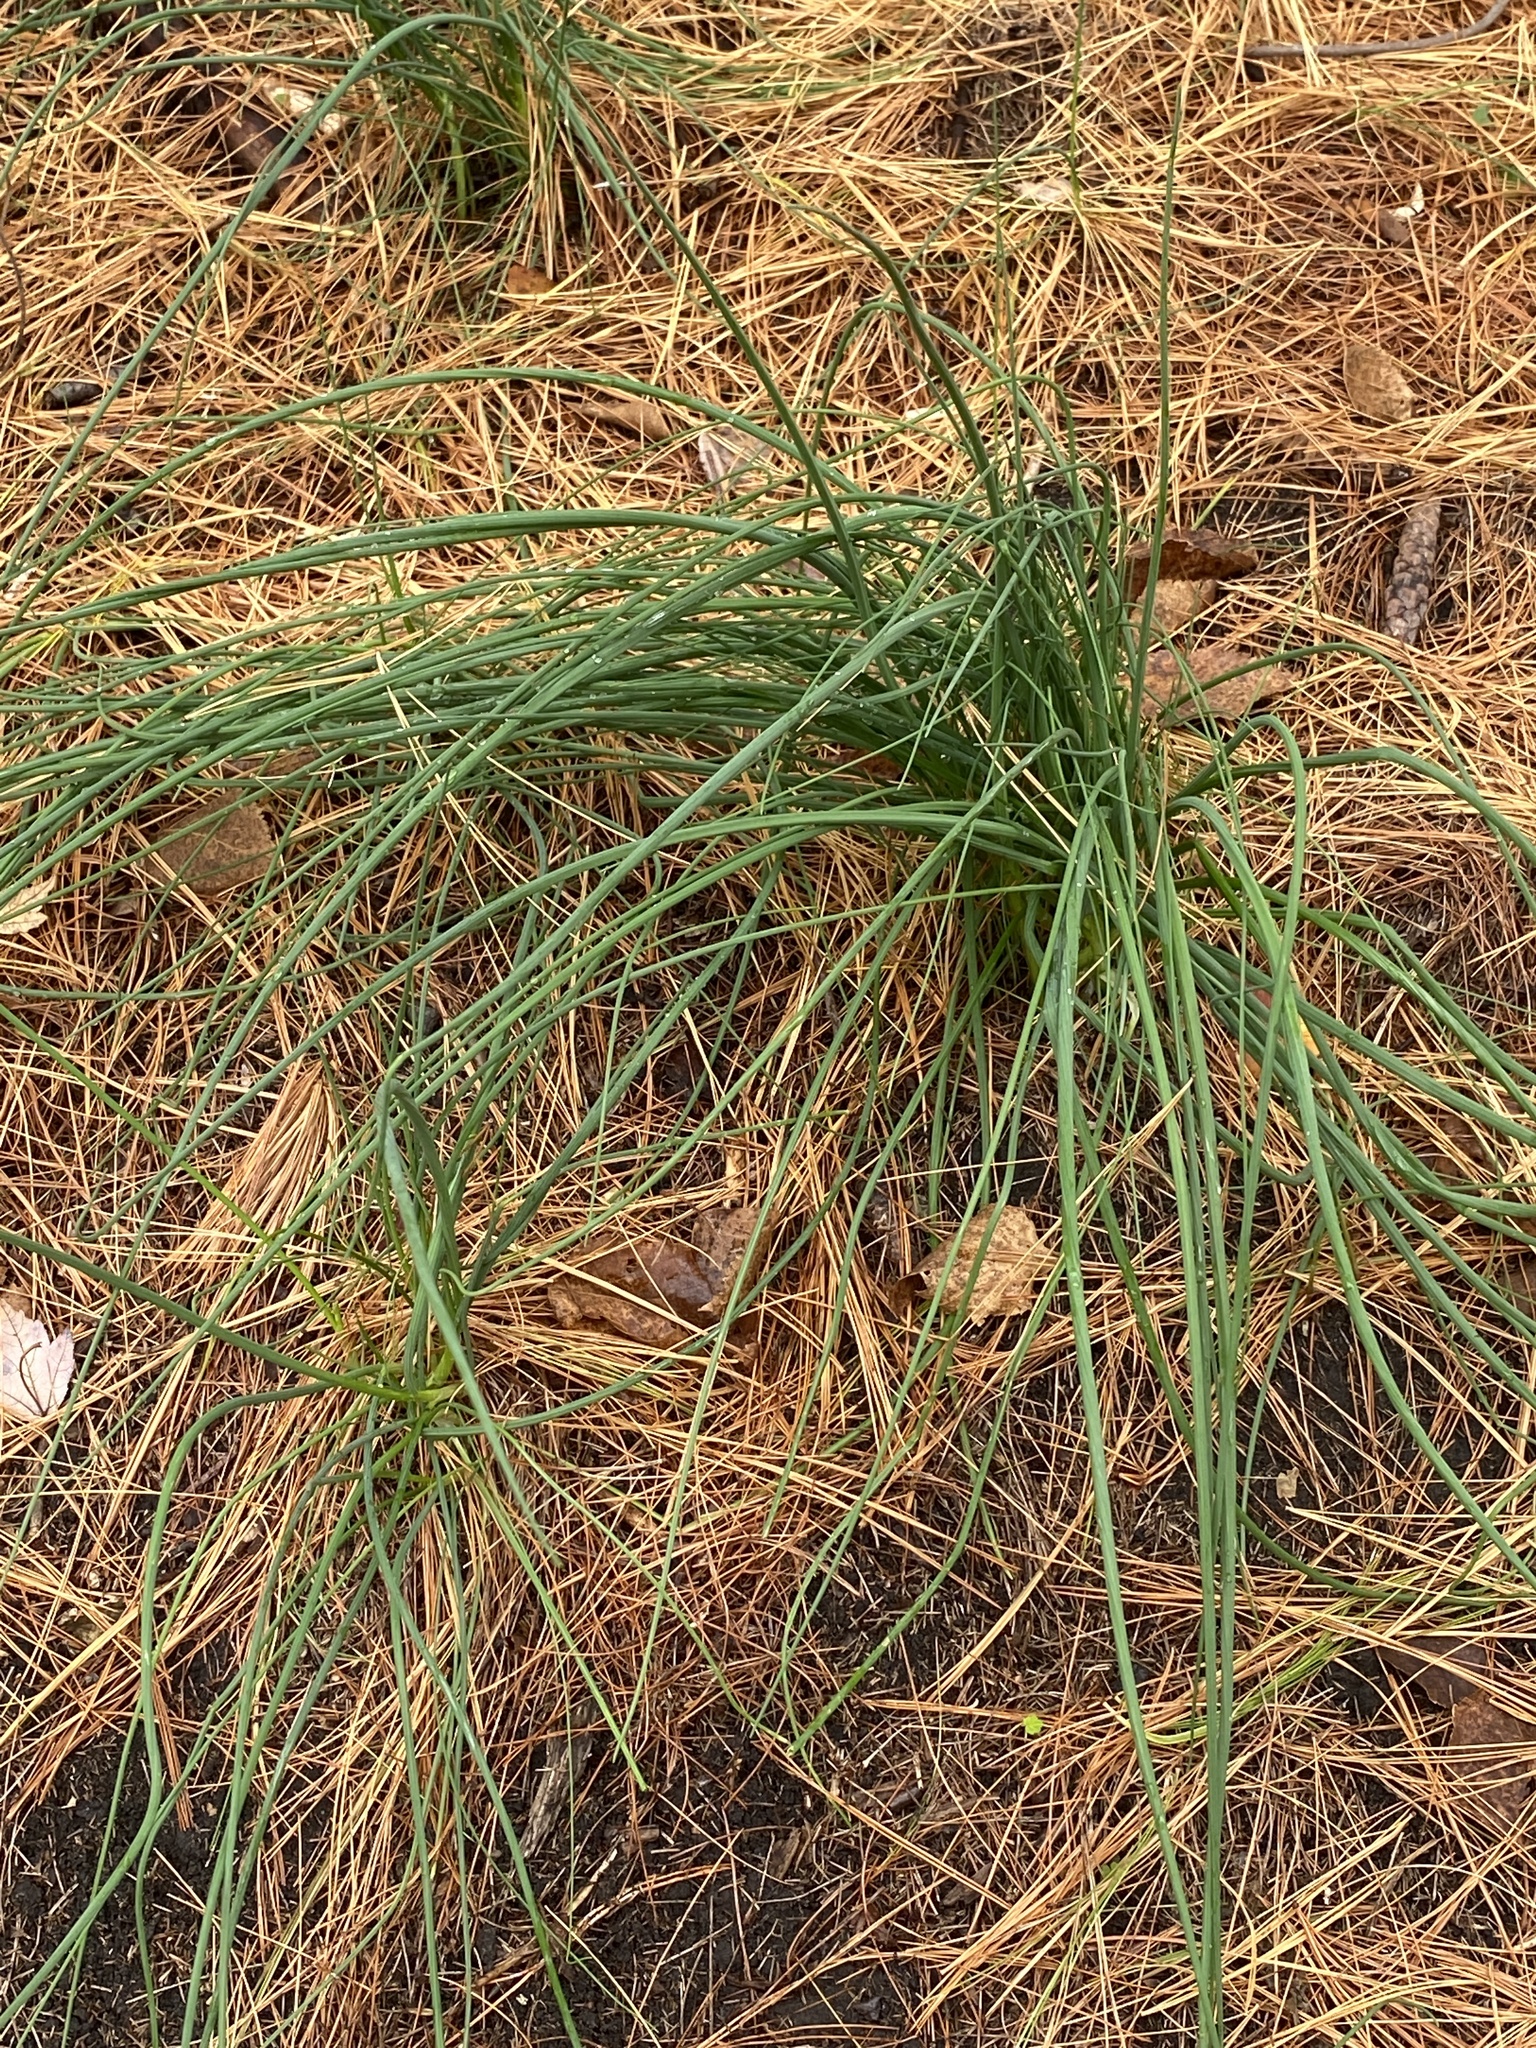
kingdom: Plantae
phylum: Tracheophyta
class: Liliopsida
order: Asparagales
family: Amaryllidaceae
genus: Allium
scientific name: Allium vineale
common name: Crow garlic
